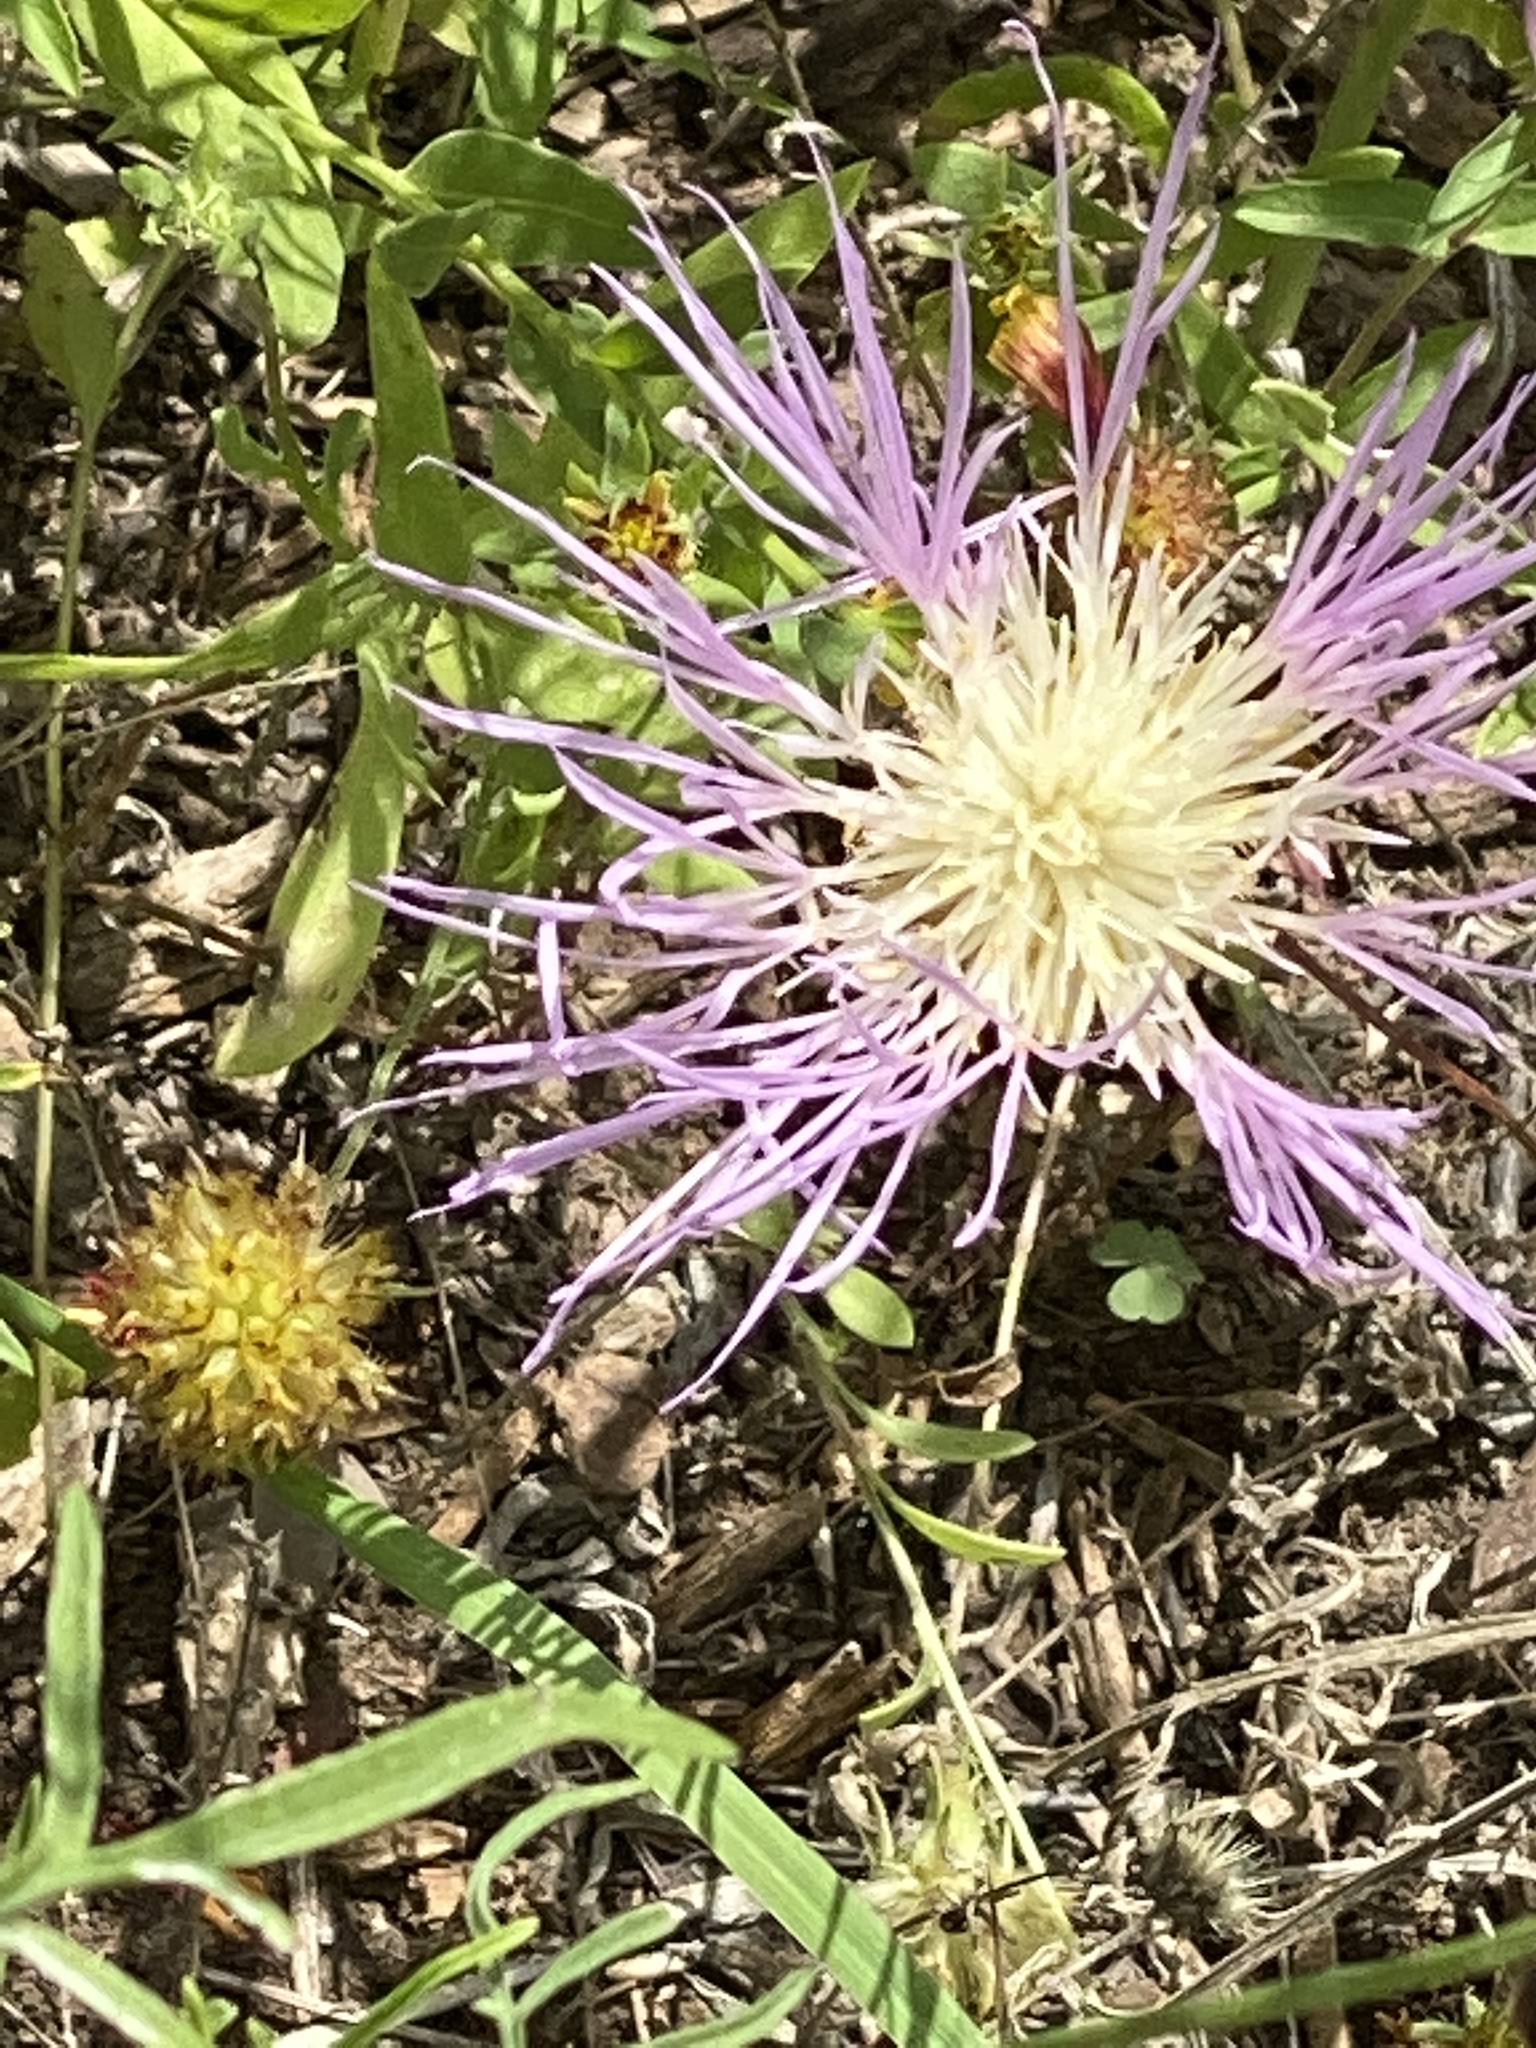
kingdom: Plantae
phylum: Tracheophyta
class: Magnoliopsida
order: Asterales
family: Asteraceae
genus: Plectocephalus
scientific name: Plectocephalus americanus
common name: American basket-flower
